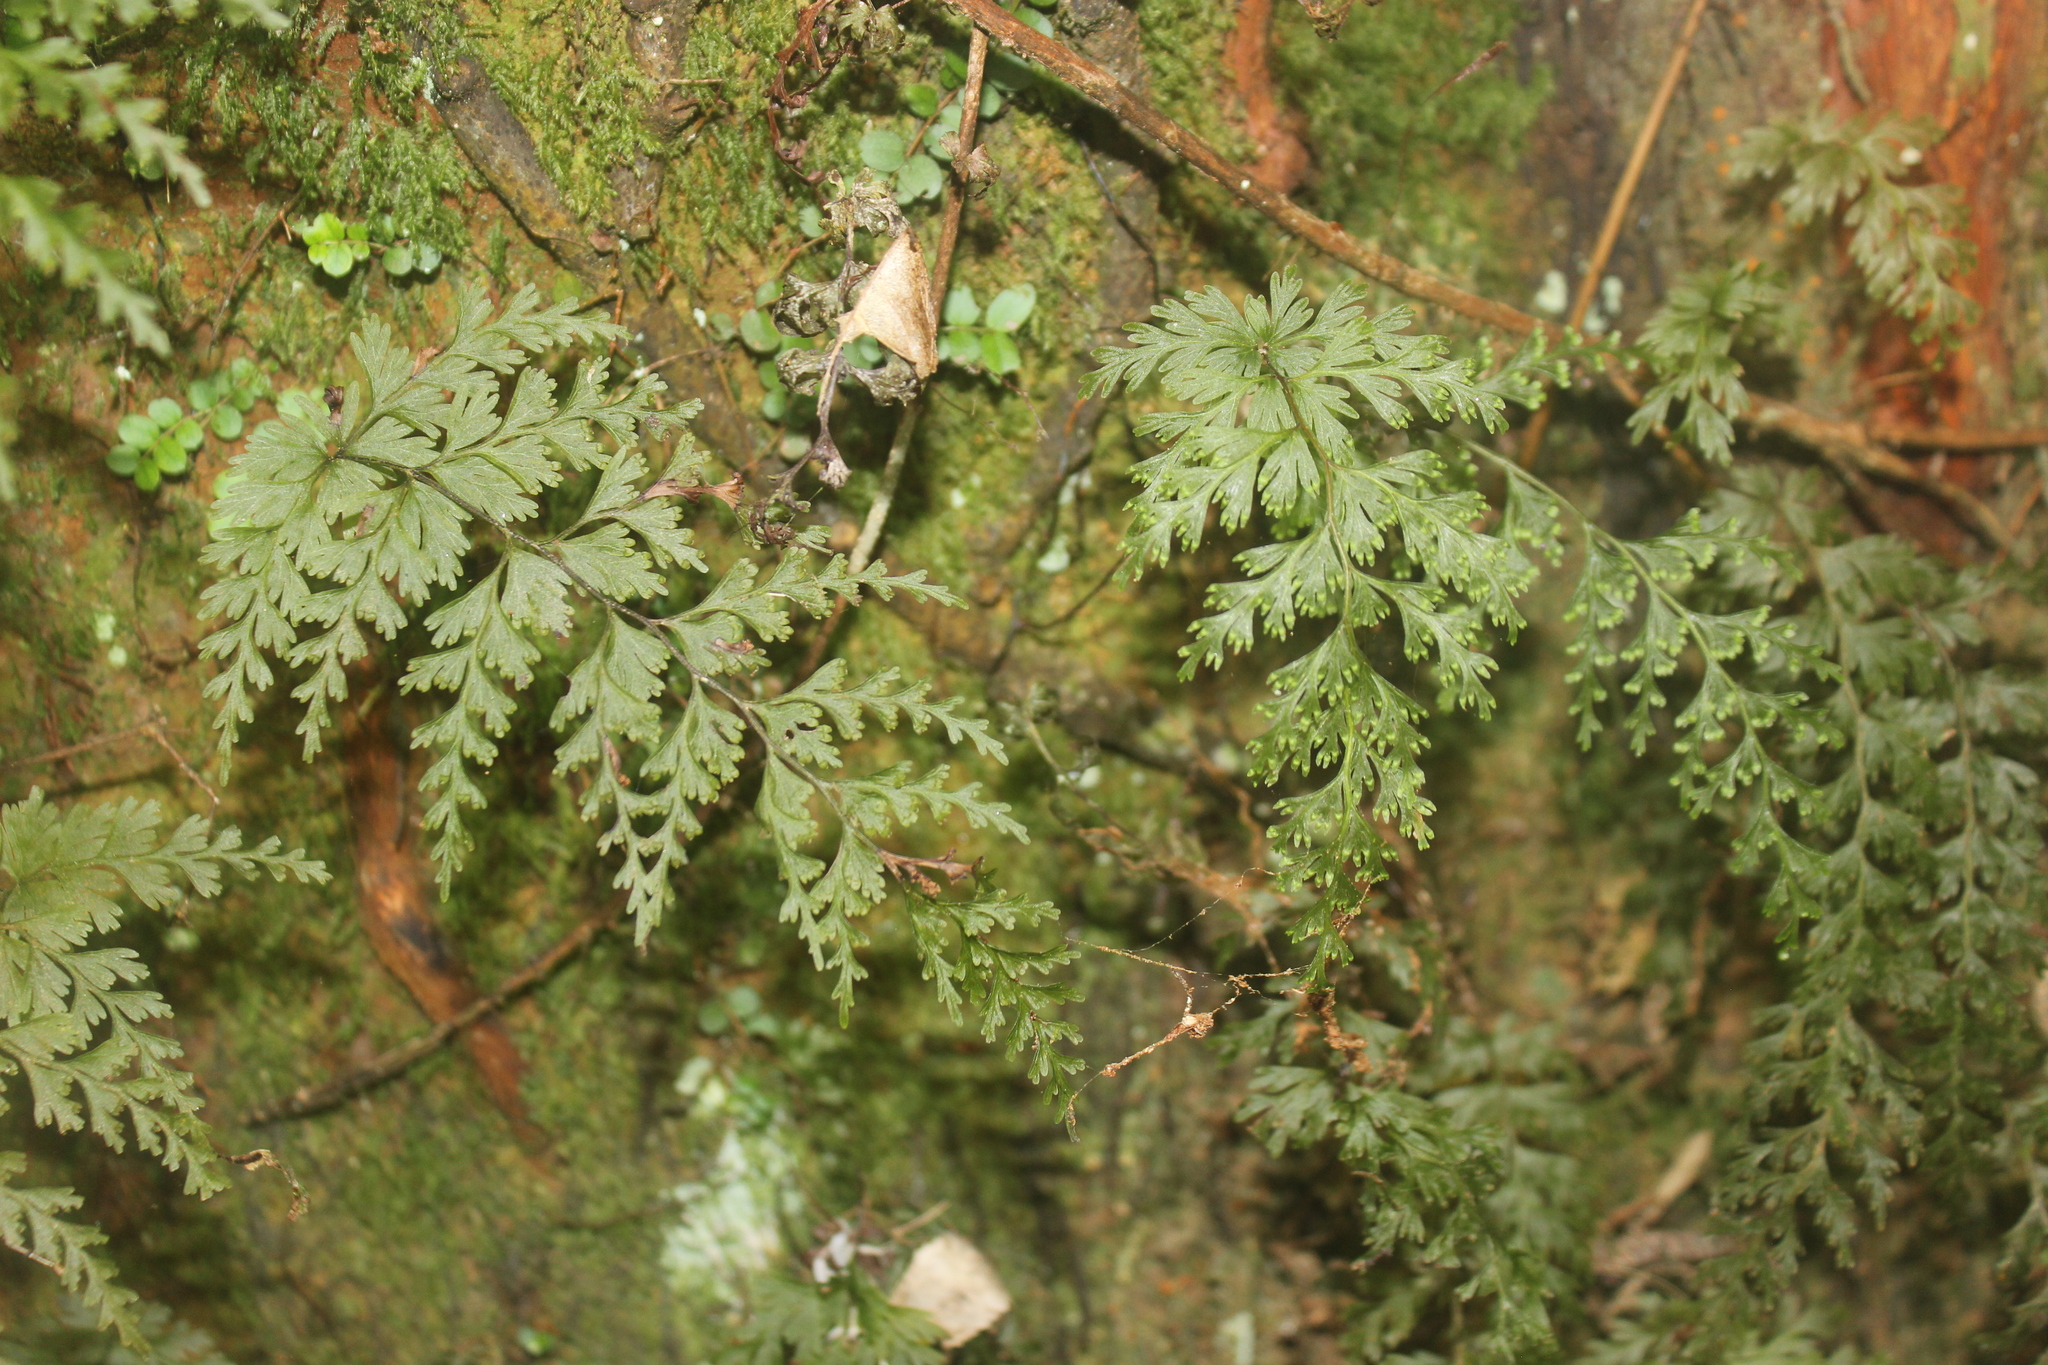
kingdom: Plantae
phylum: Tracheophyta
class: Polypodiopsida
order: Hymenophyllales
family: Hymenophyllaceae
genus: Hymenophyllum
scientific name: Hymenophyllum demissum
